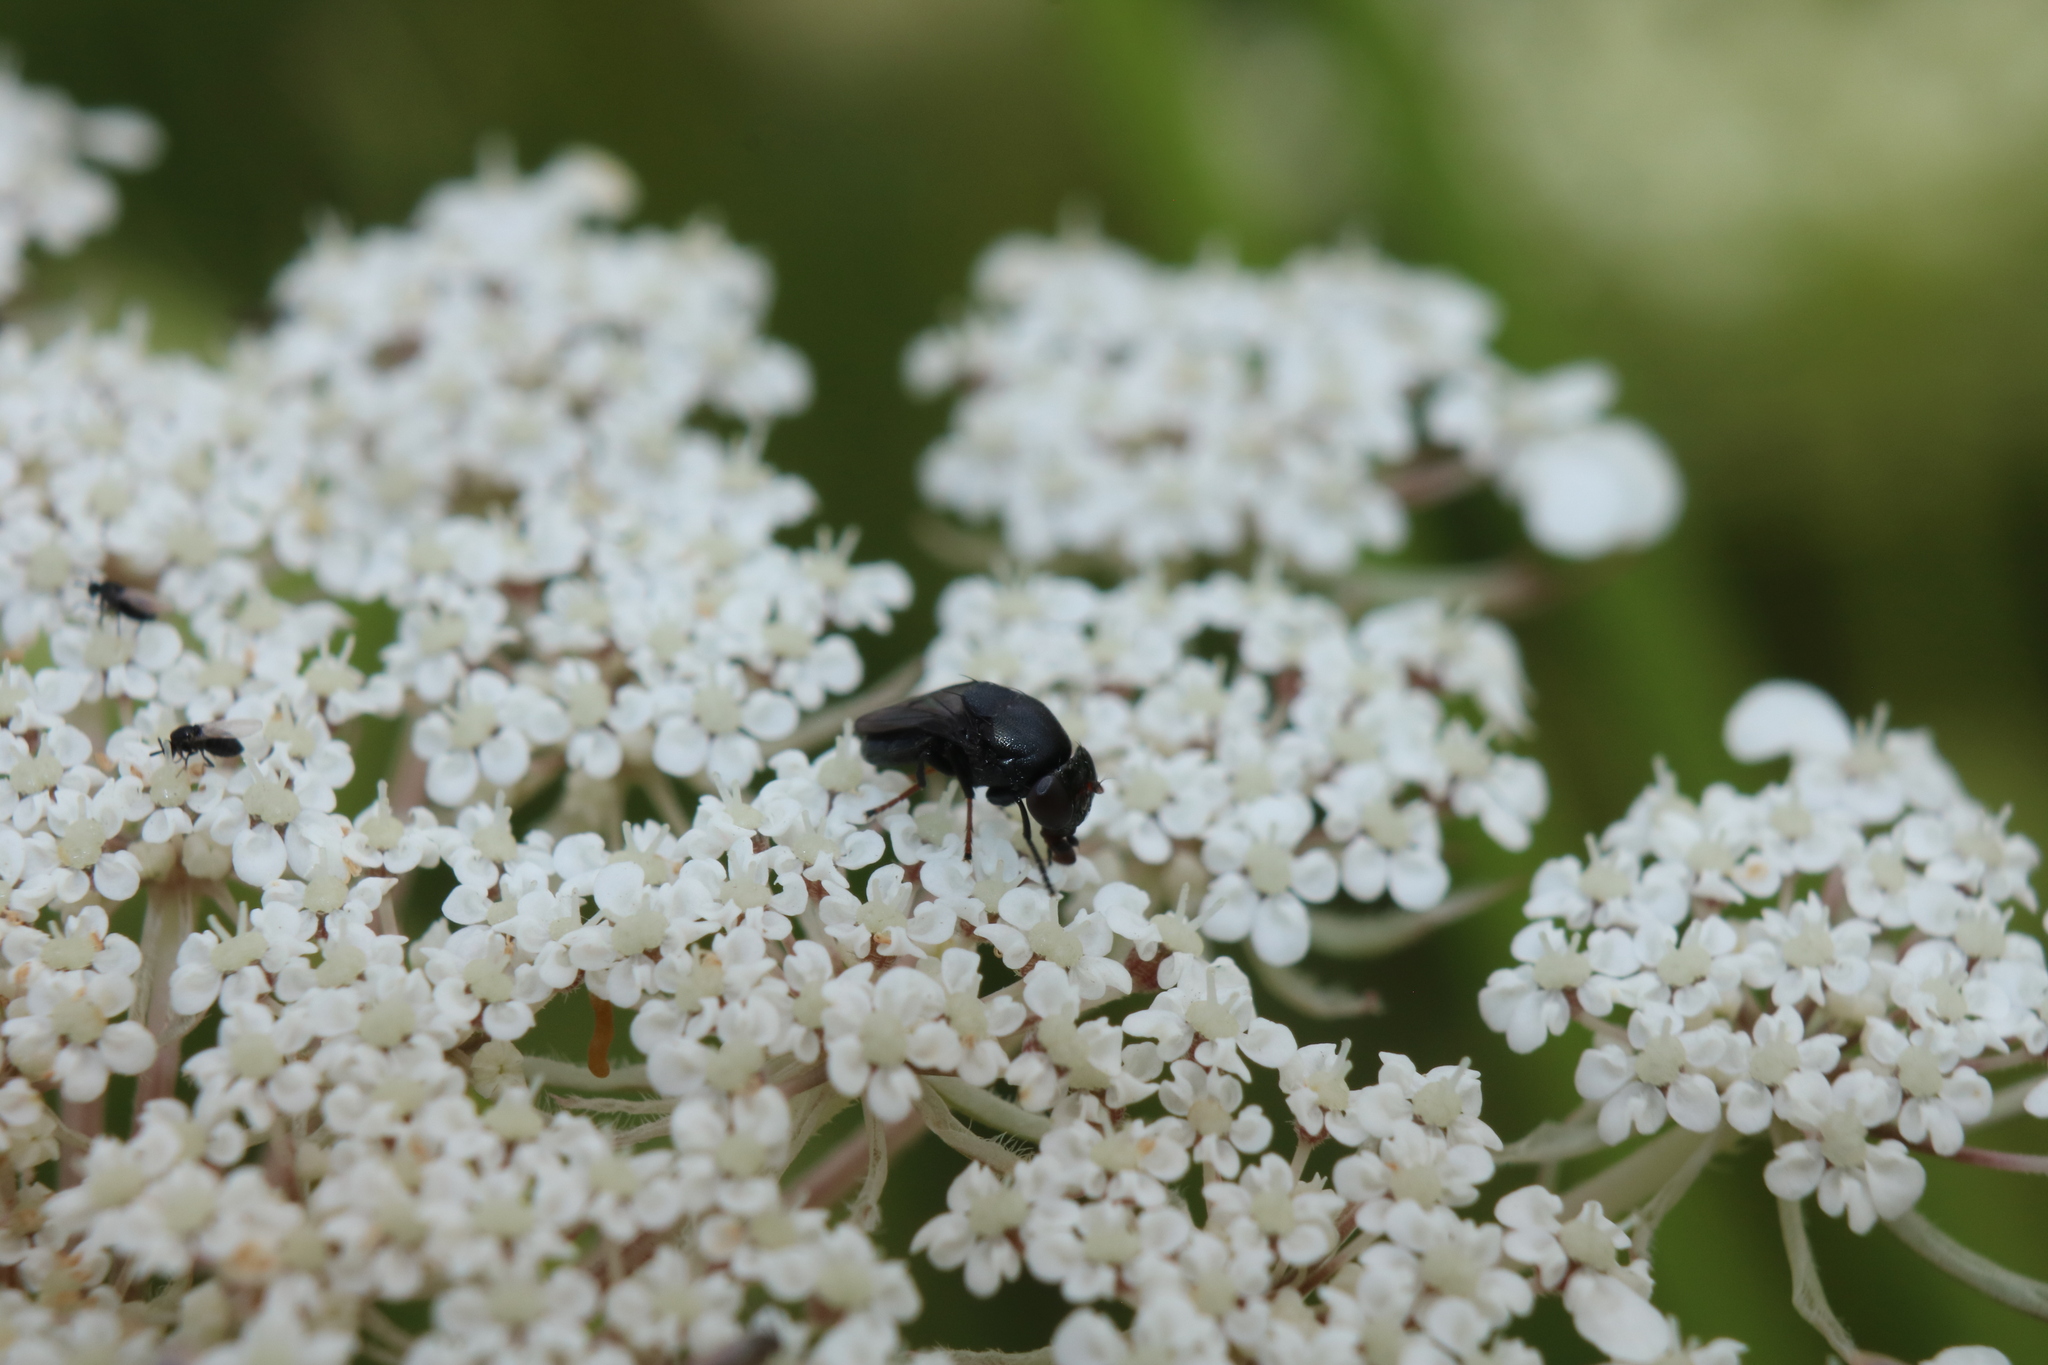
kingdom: Animalia
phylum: Arthropoda
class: Insecta
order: Diptera
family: Ephydridae
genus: Discomyza
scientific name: Discomyza incurva
